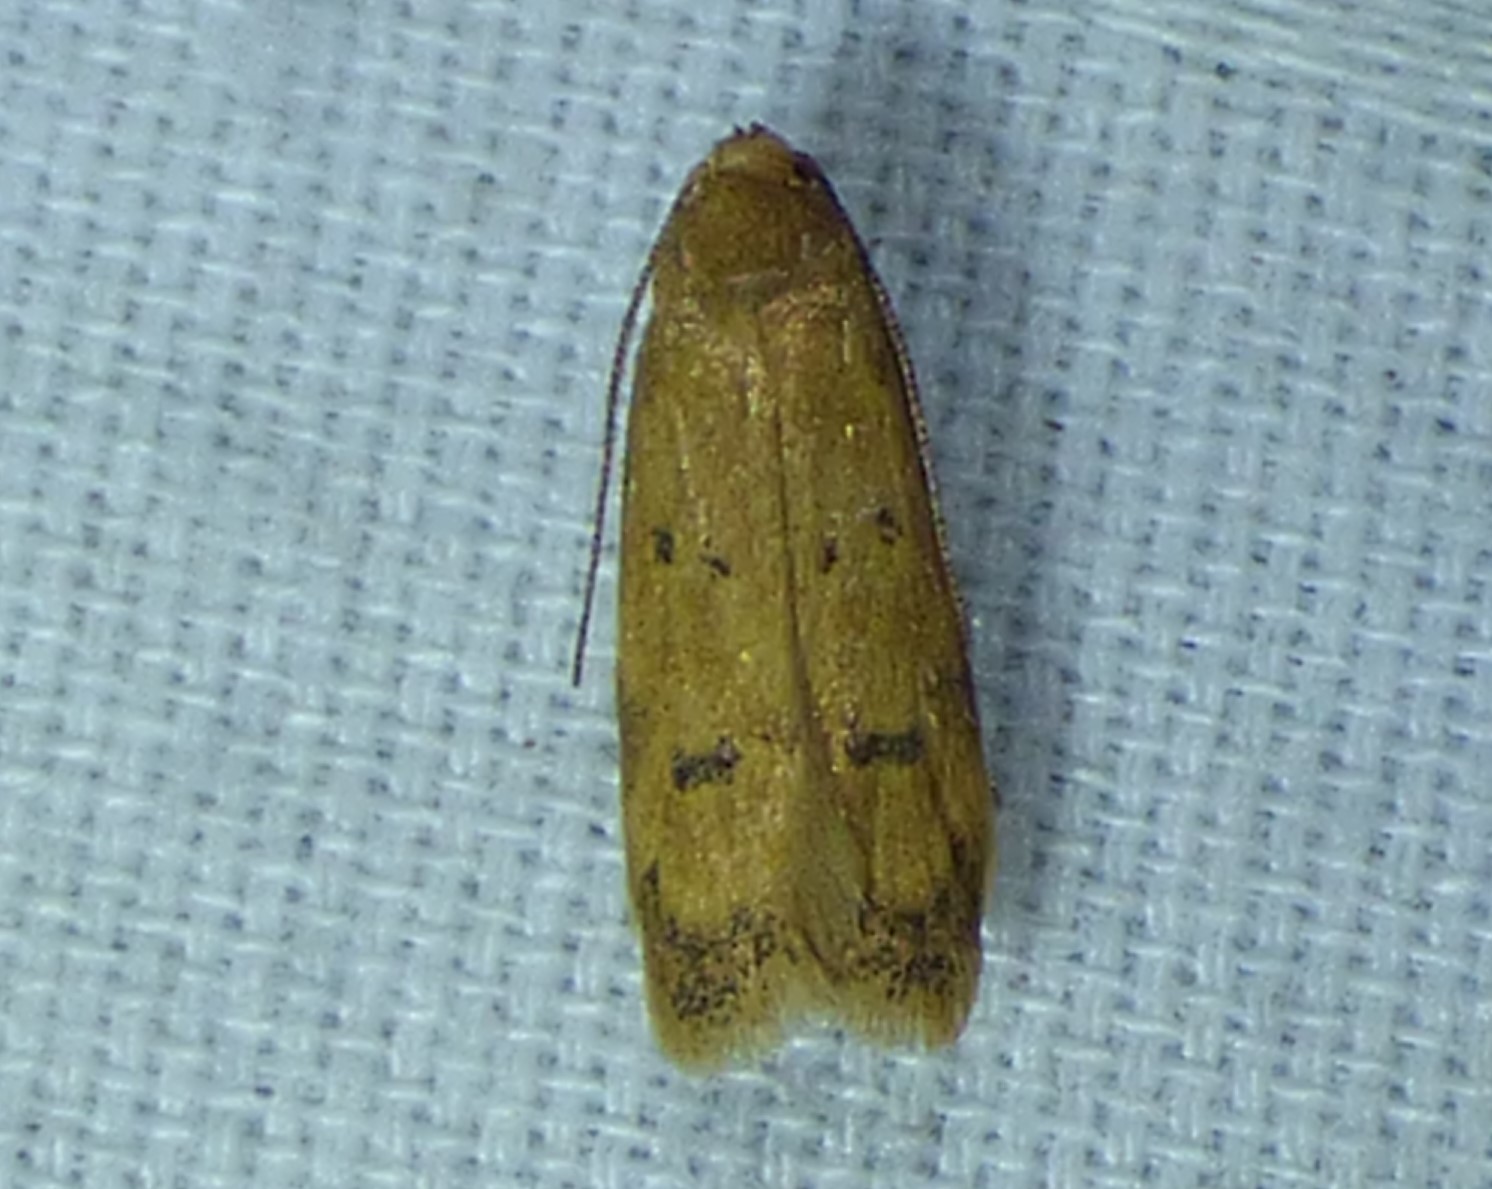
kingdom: Animalia
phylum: Arthropoda
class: Insecta
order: Lepidoptera
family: Autostichidae
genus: Gerdana
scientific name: Gerdana caritella
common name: Gerdana moth
